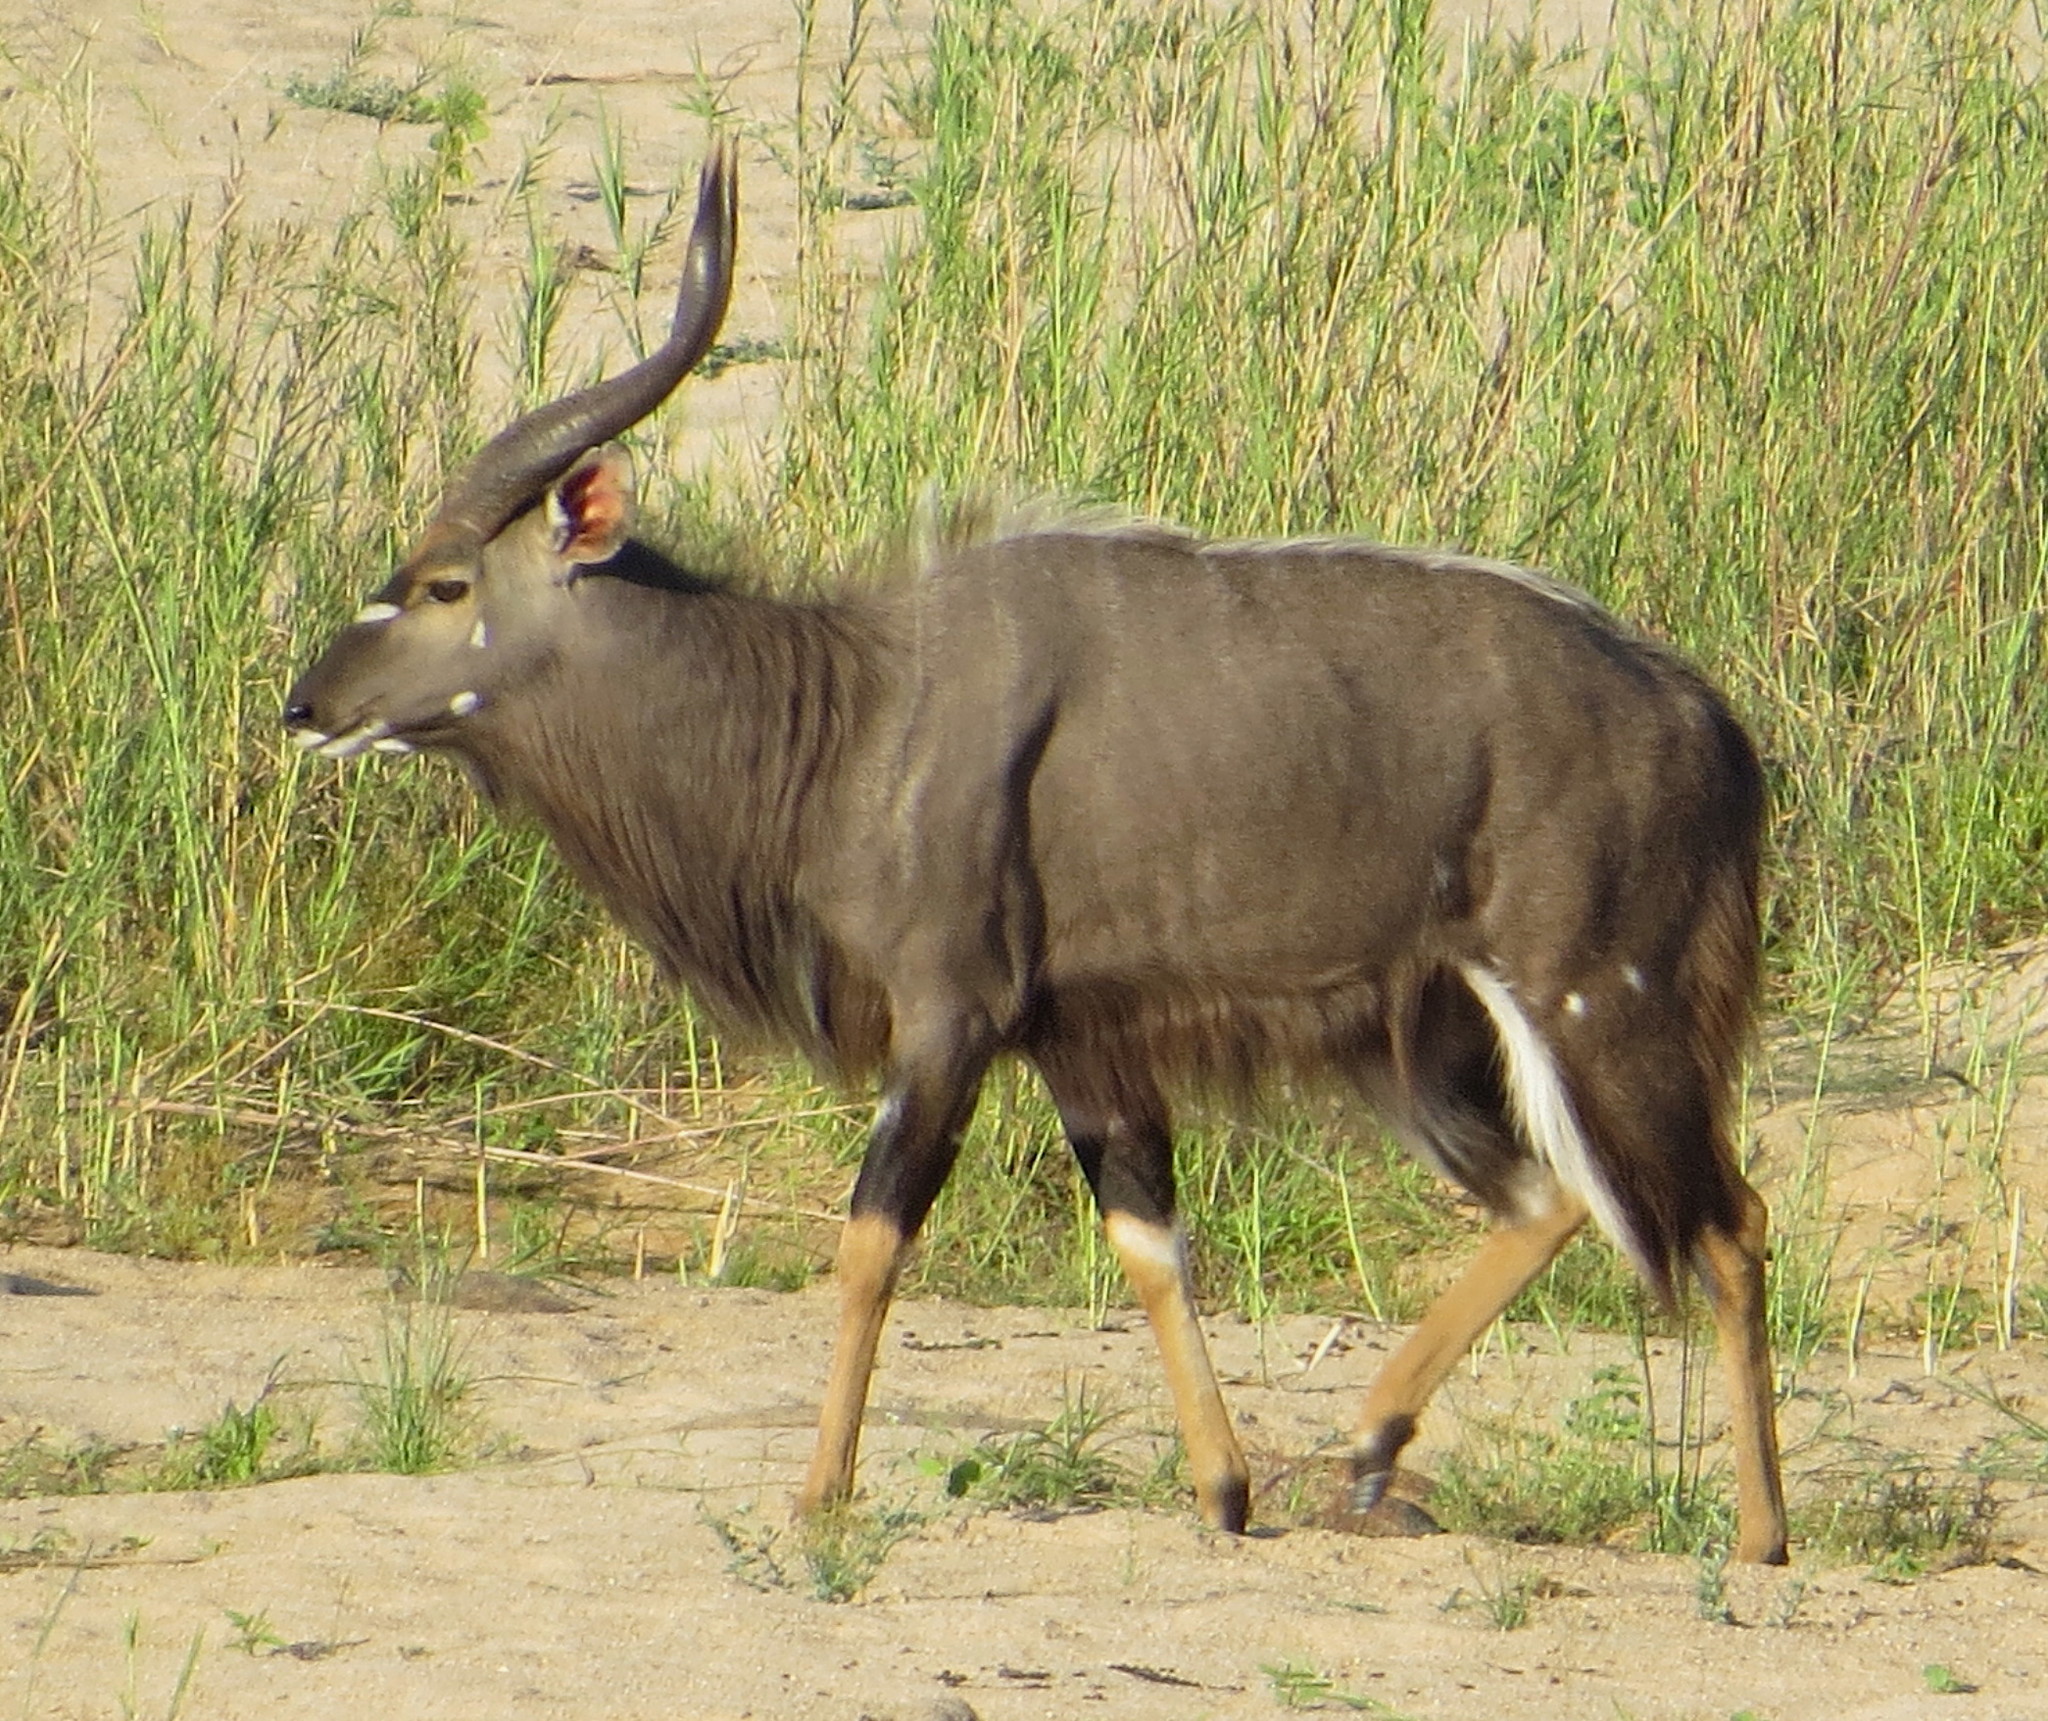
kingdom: Animalia
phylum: Chordata
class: Mammalia
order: Artiodactyla
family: Bovidae
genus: Tragelaphus
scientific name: Tragelaphus angasii
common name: Nyala
